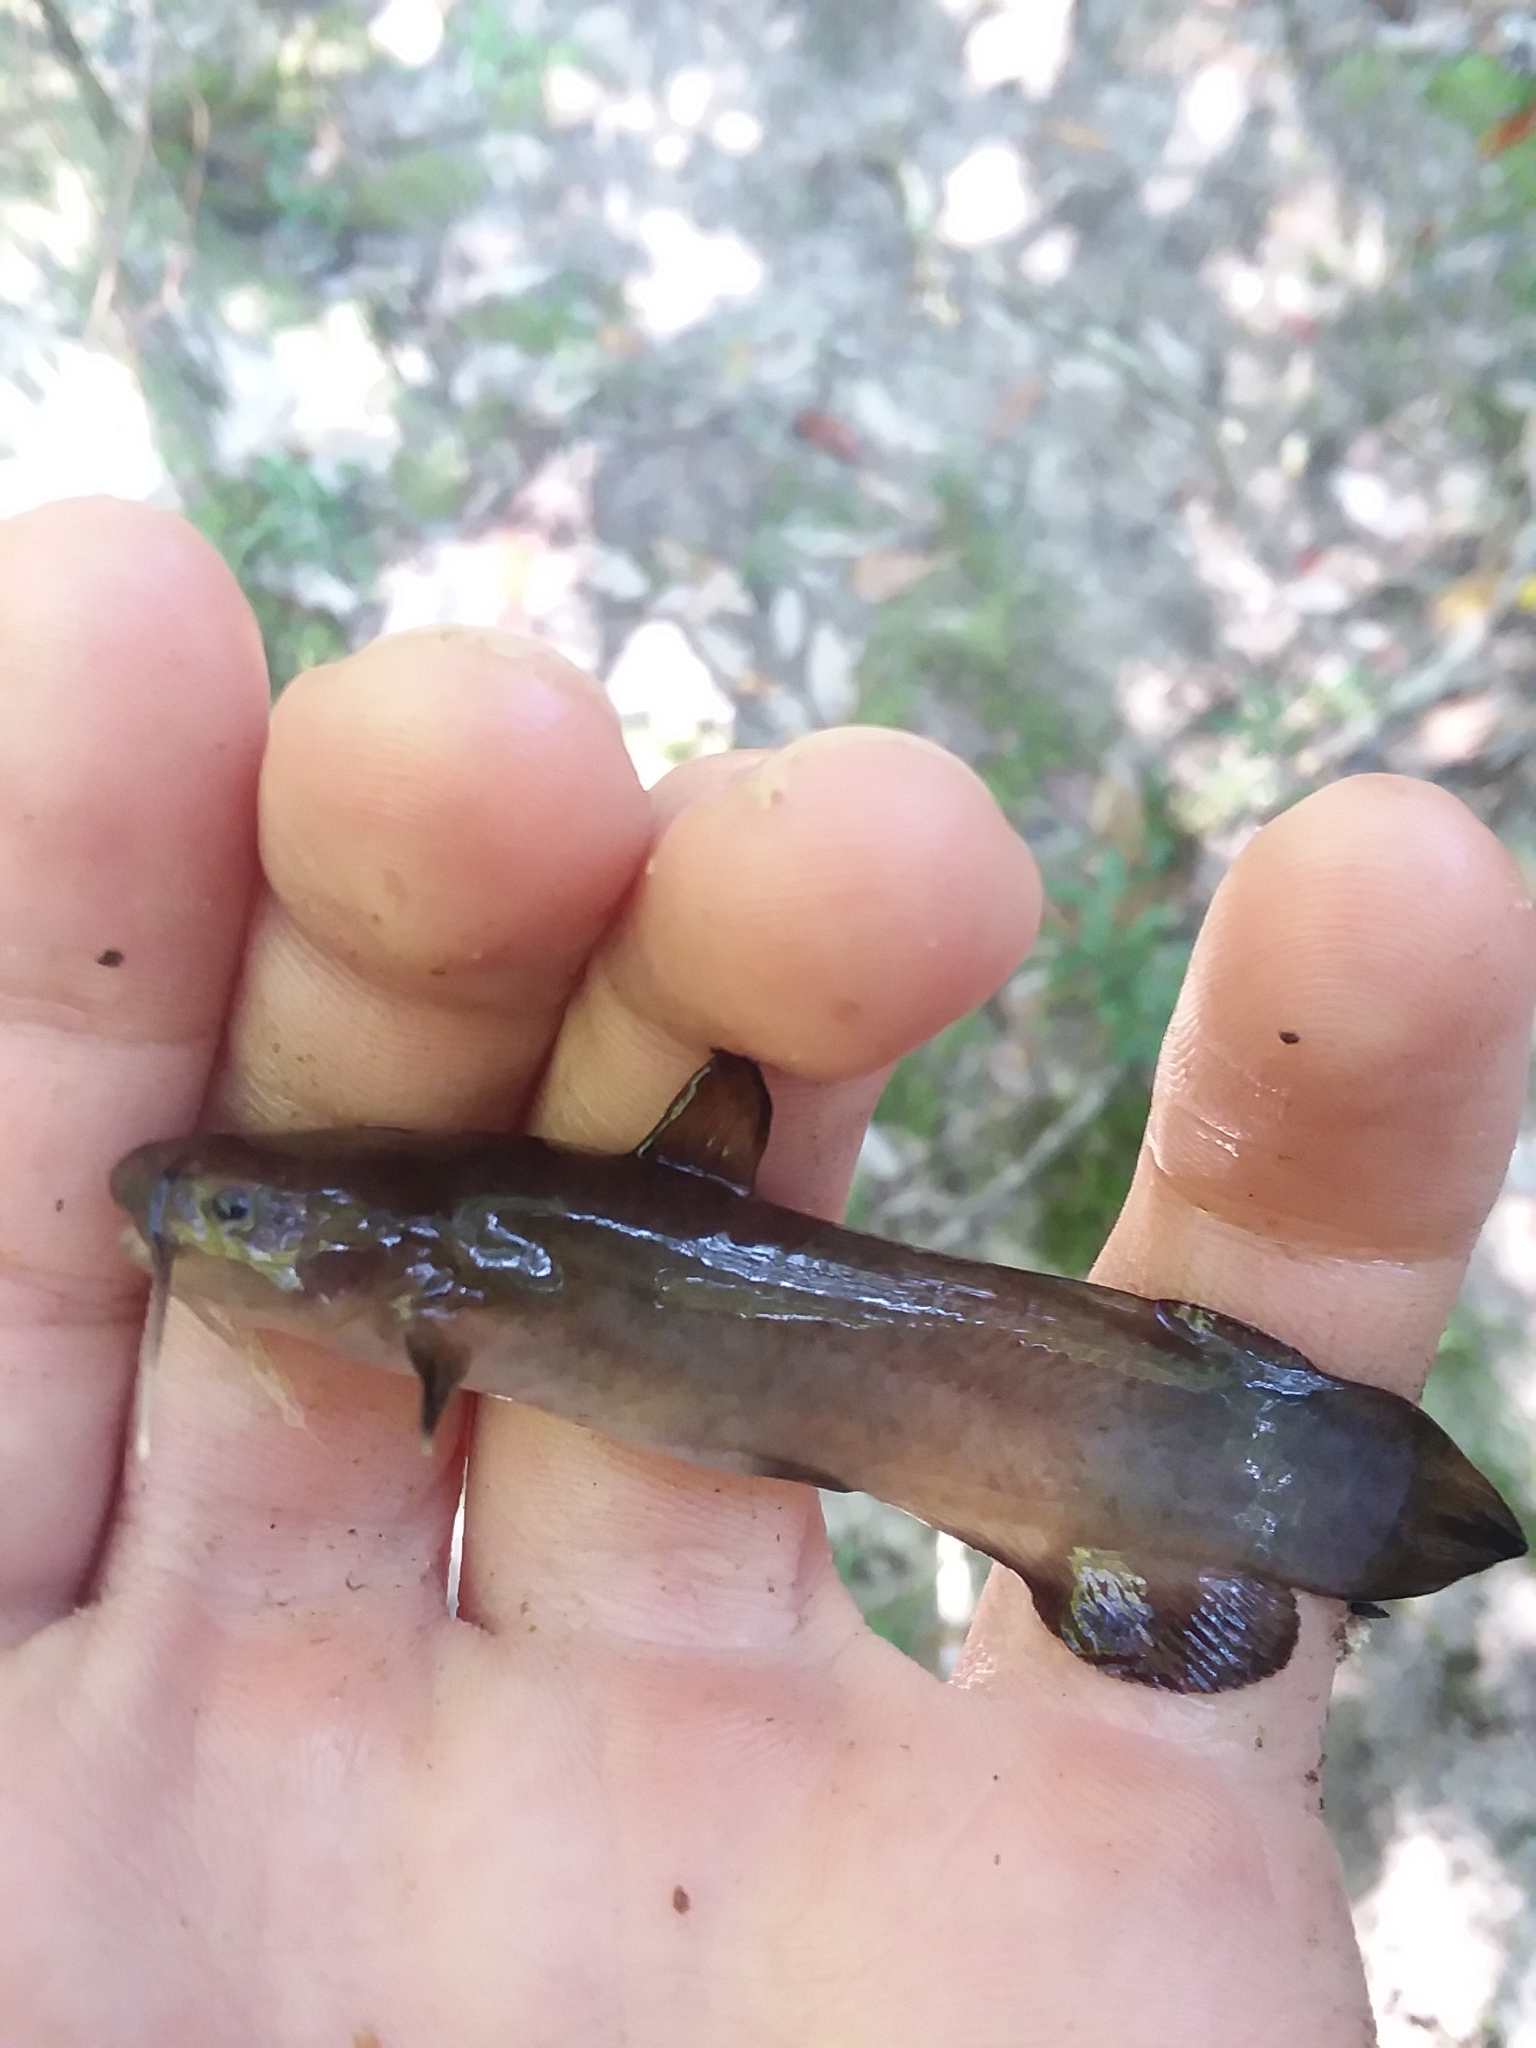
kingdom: Animalia
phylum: Chordata
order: Siluriformes
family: Ictaluridae
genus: Noturus
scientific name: Noturus funebris
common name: Black madtom
